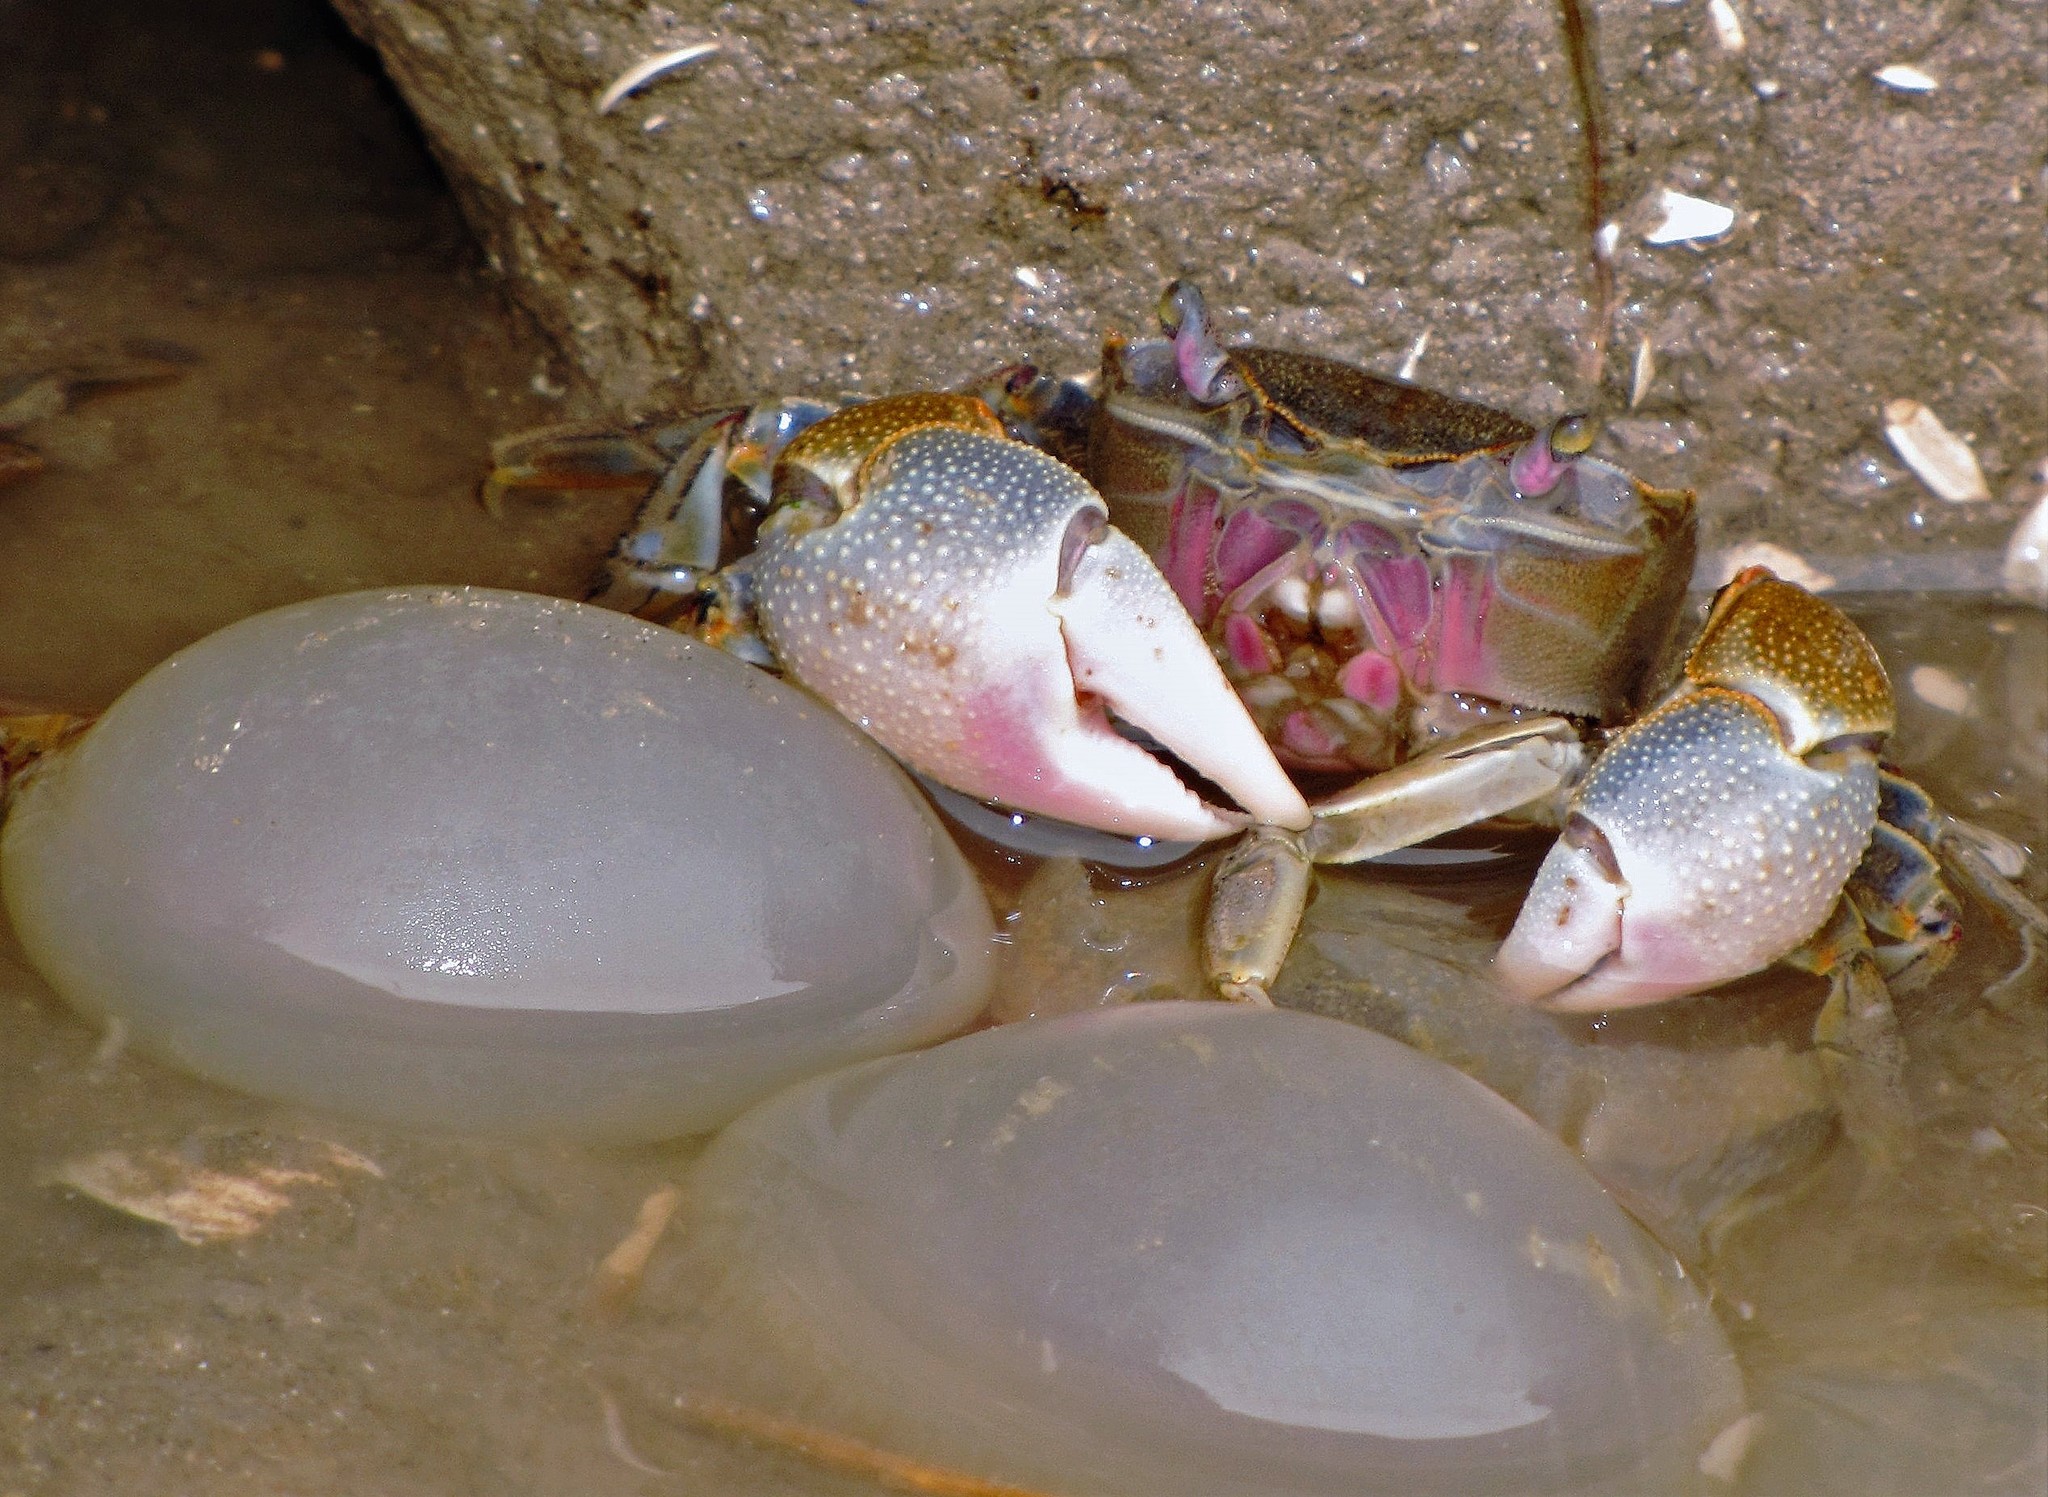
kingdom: Animalia
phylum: Arthropoda
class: Malacostraca
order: Decapoda
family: Varunidae
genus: Neohelice
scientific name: Neohelice granulata
